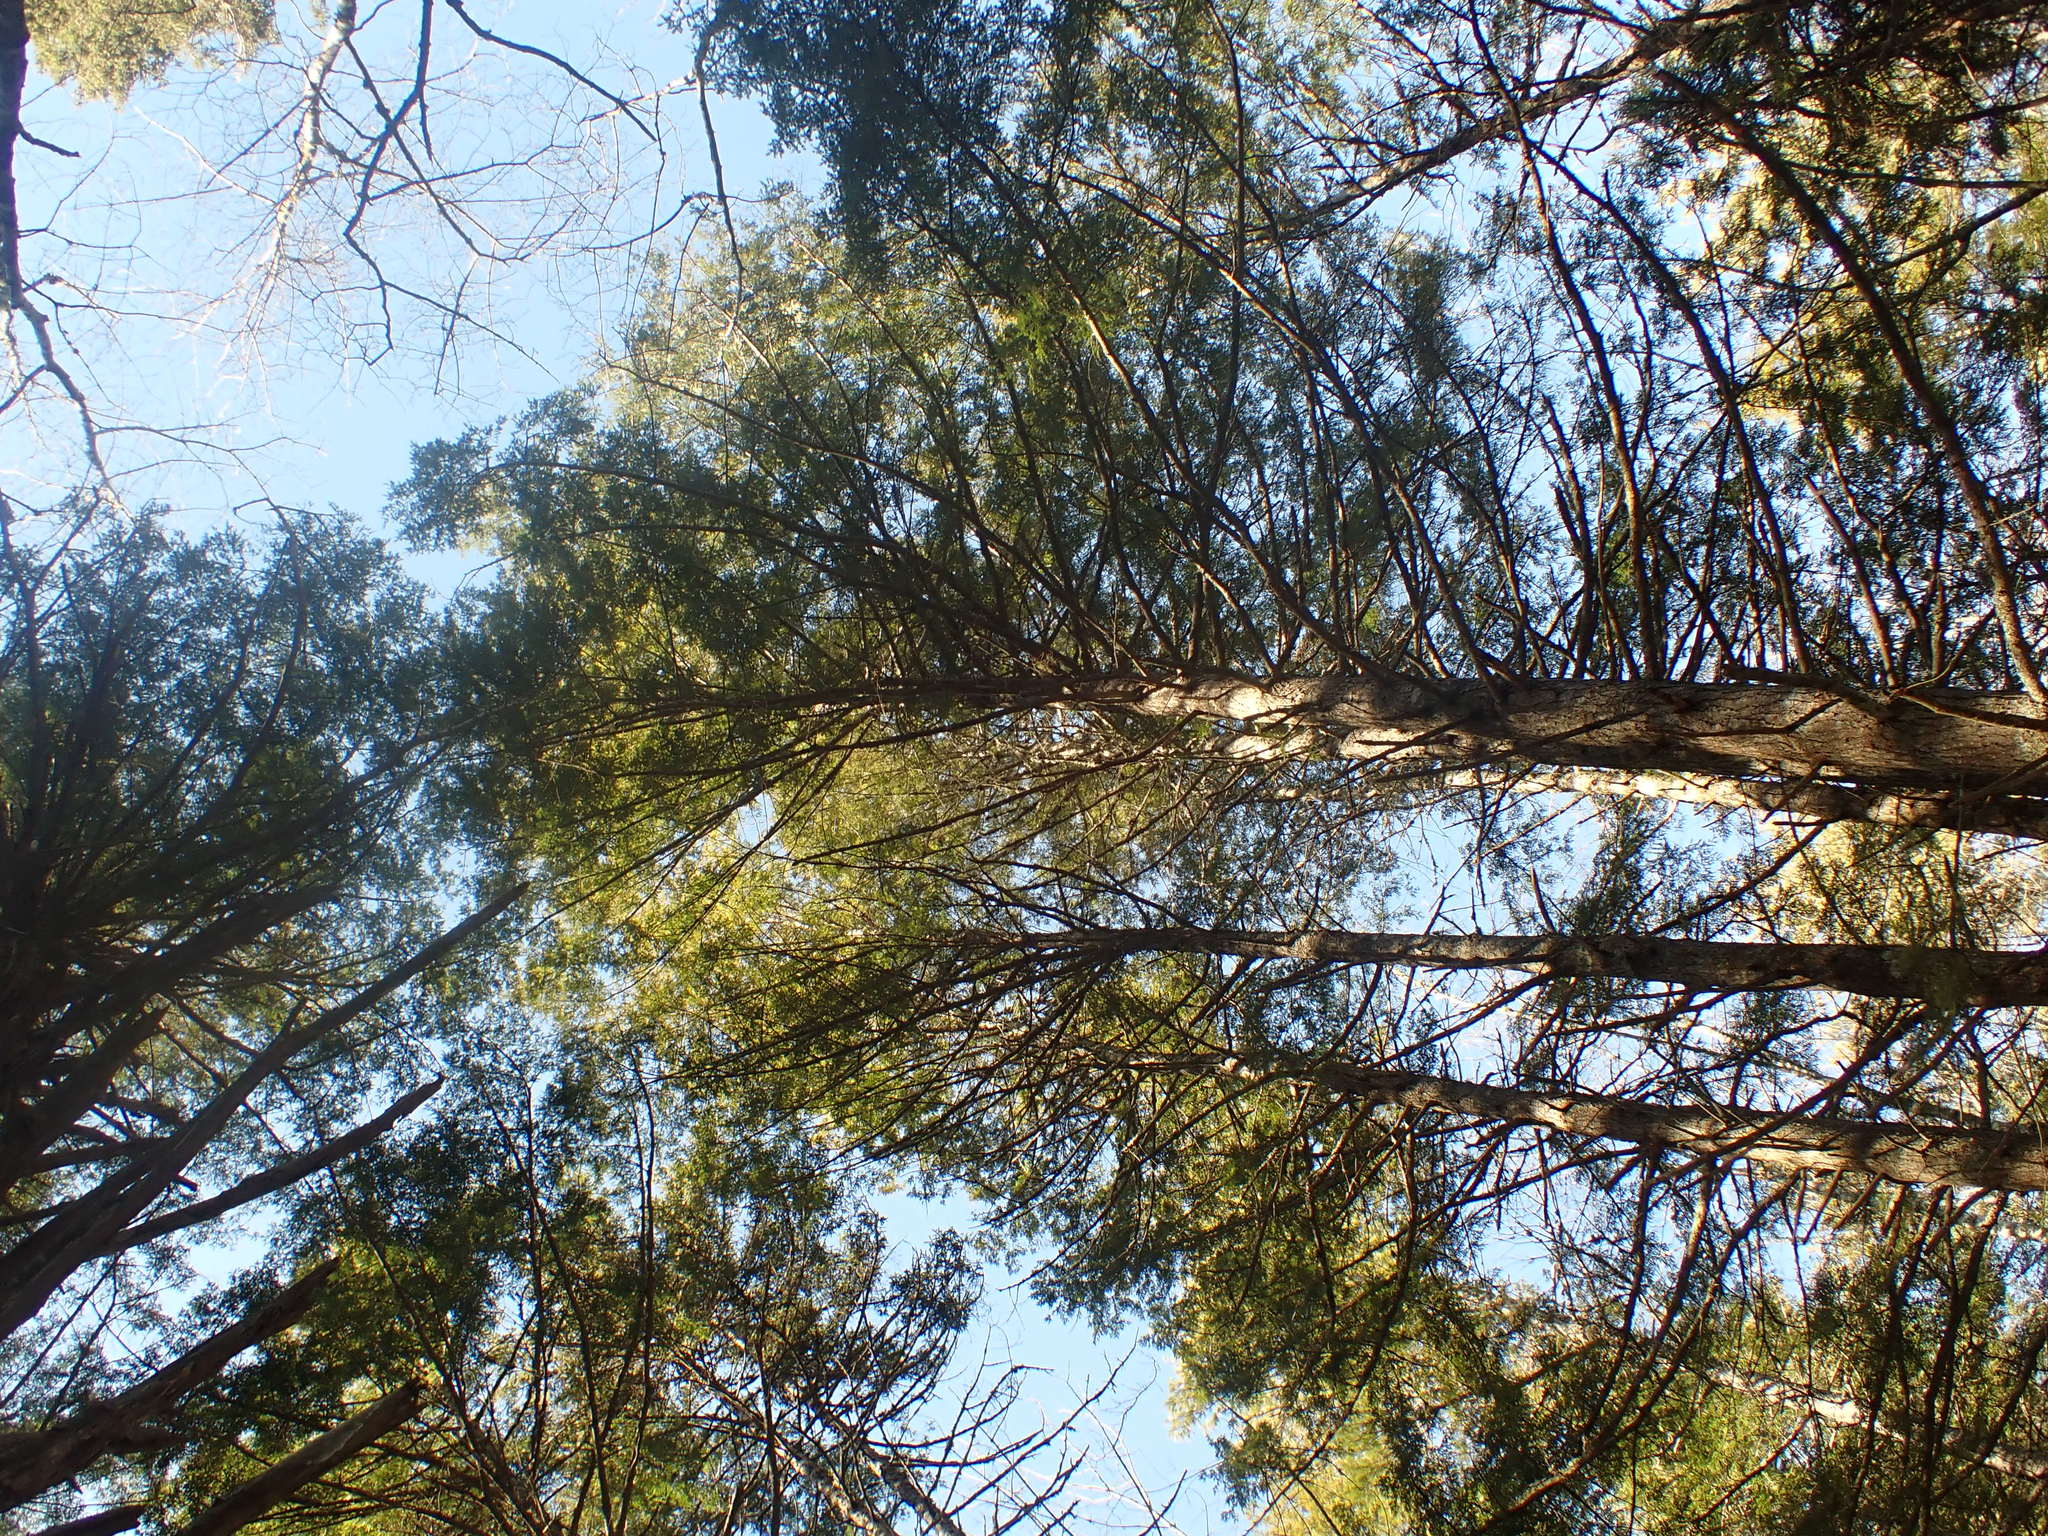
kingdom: Plantae
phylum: Tracheophyta
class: Pinopsida
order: Pinales
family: Pinaceae
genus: Tsuga
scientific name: Tsuga canadensis
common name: Eastern hemlock
